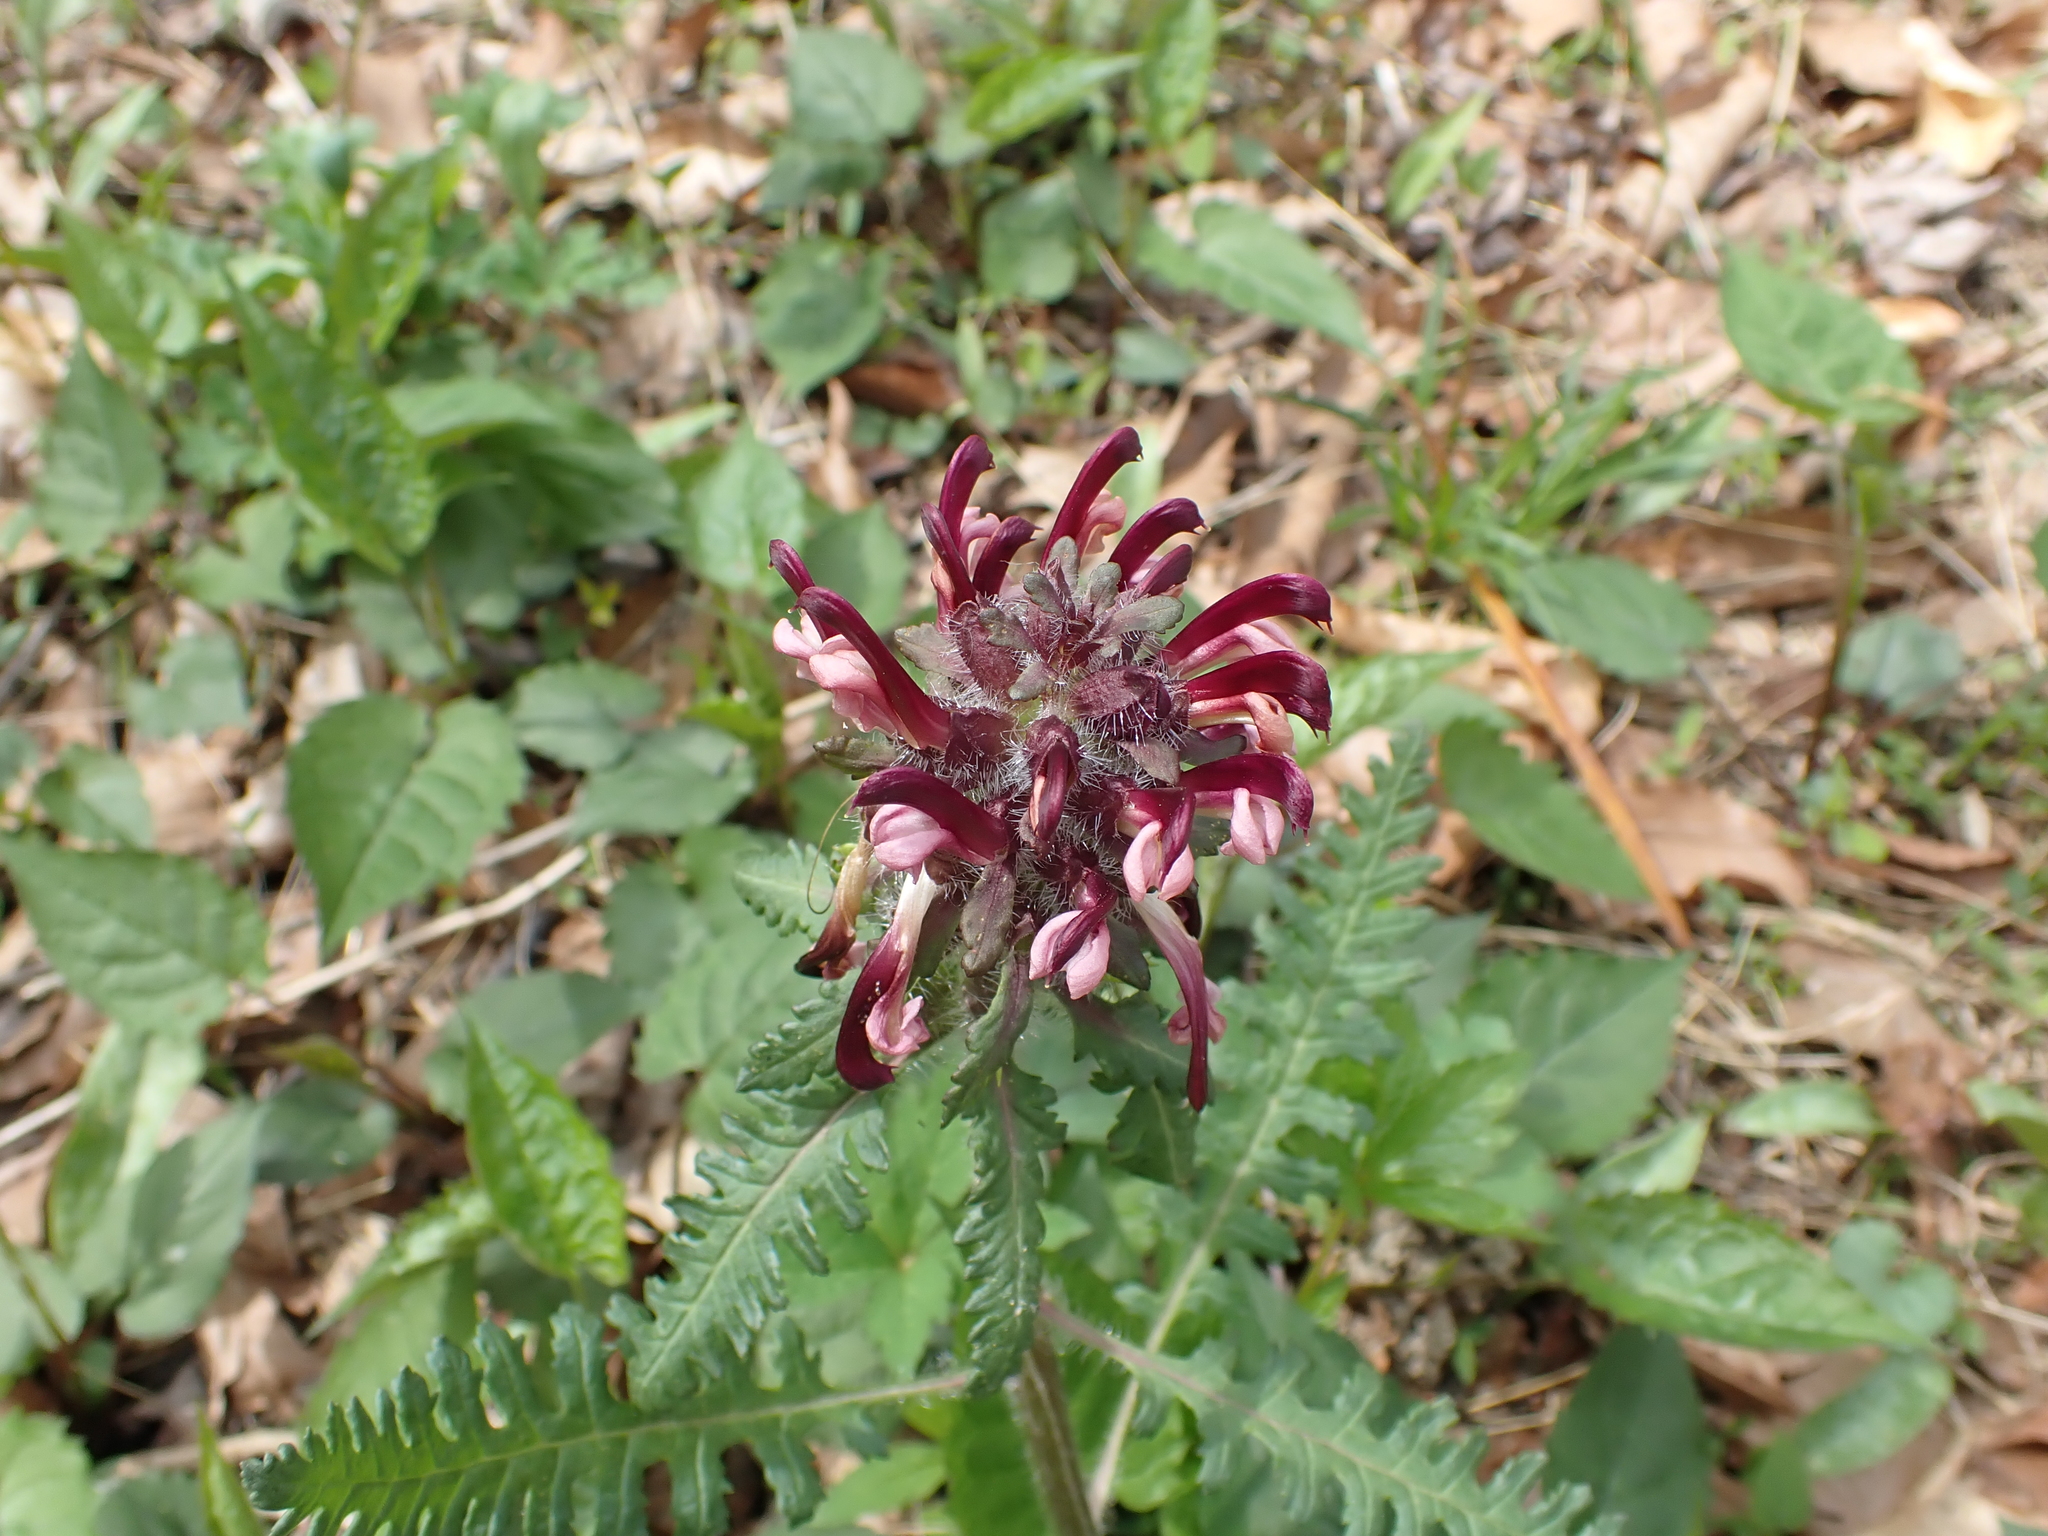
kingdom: Plantae
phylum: Tracheophyta
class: Magnoliopsida
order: Lamiales
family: Orobanchaceae
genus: Pedicularis
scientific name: Pedicularis canadensis
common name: Early lousewort
